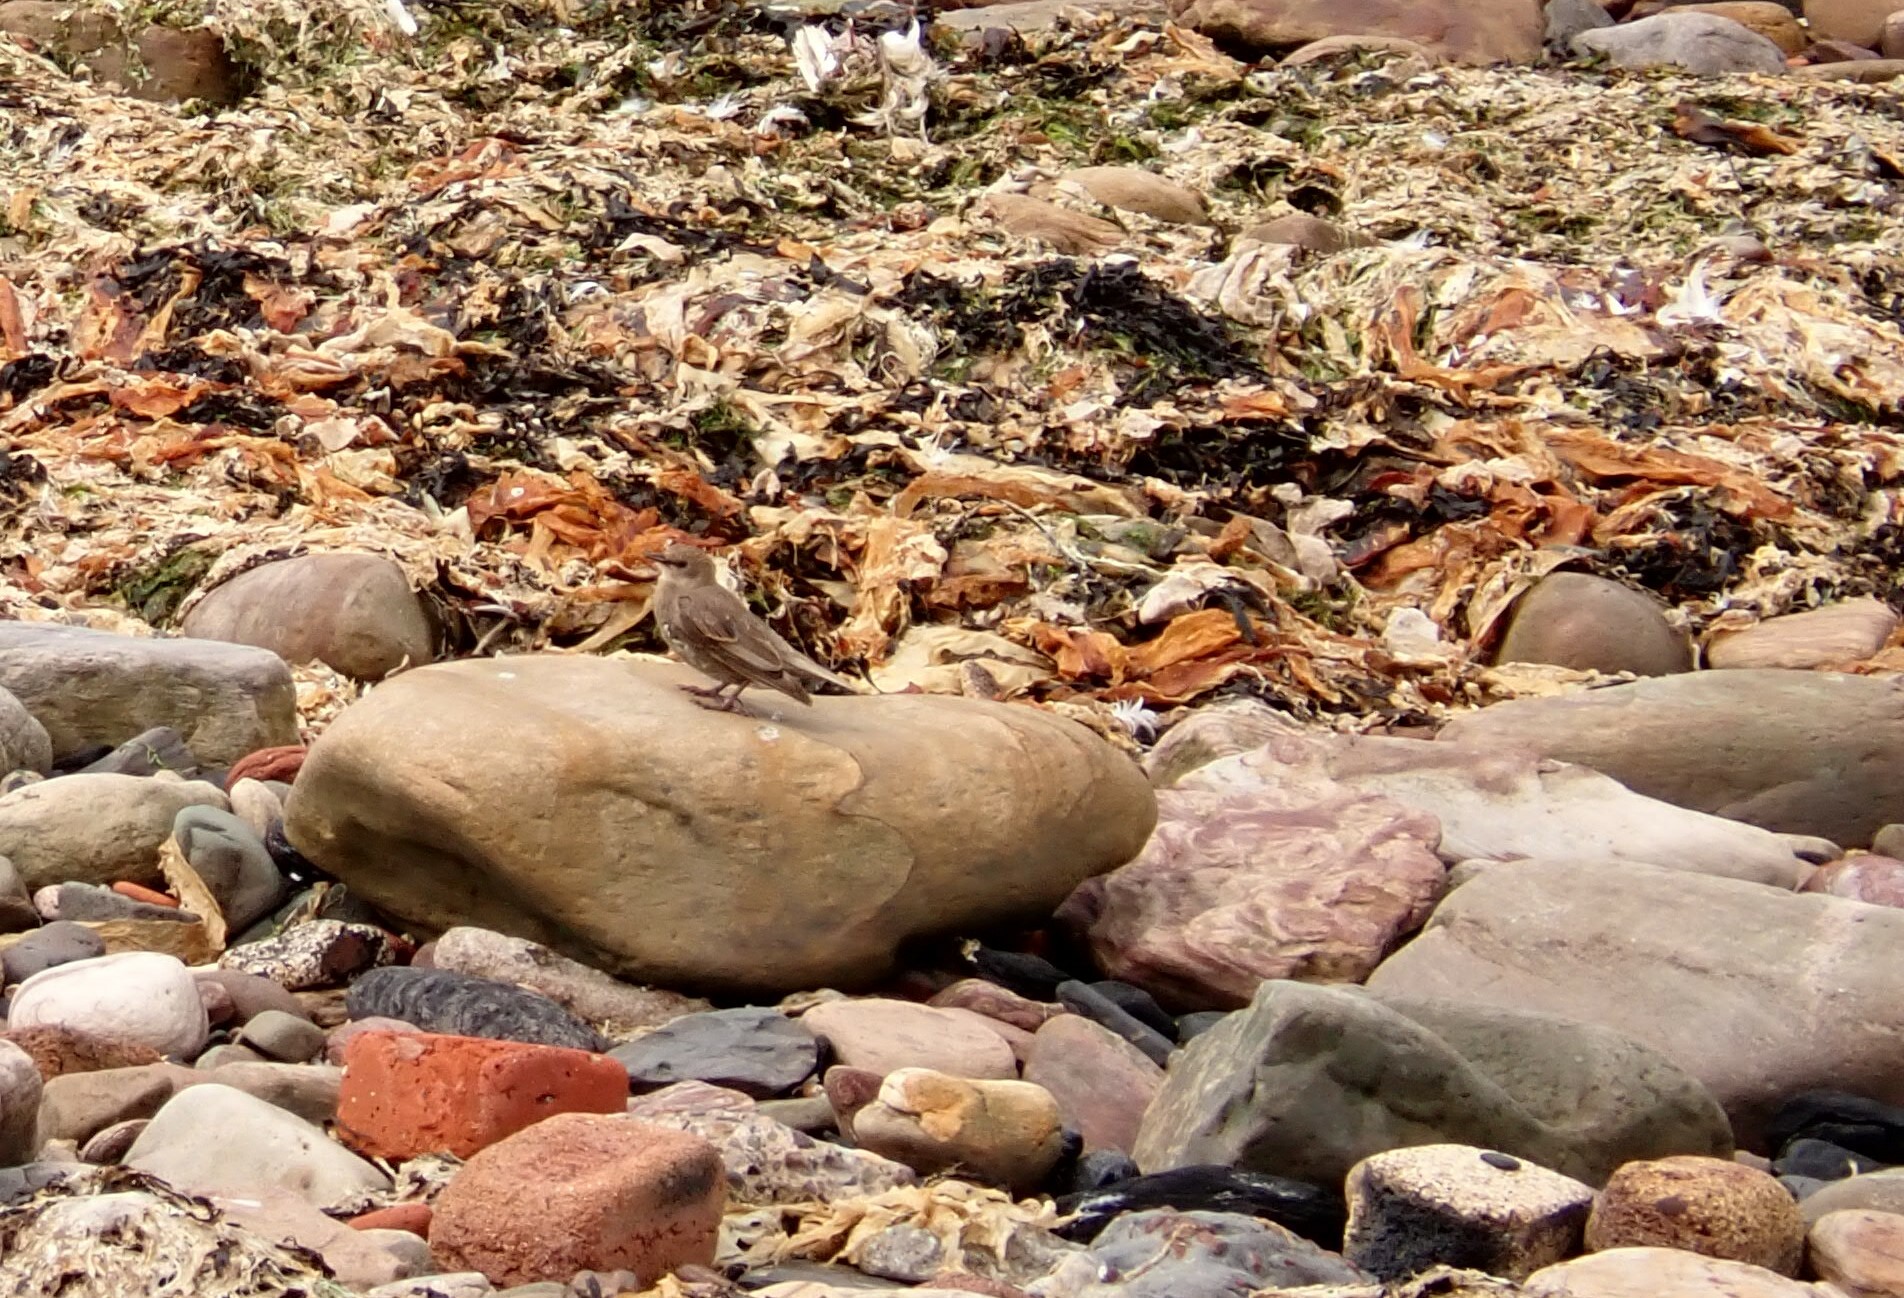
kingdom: Animalia
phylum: Chordata
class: Aves
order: Passeriformes
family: Sturnidae
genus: Sturnus
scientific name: Sturnus vulgaris
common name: Common starling
